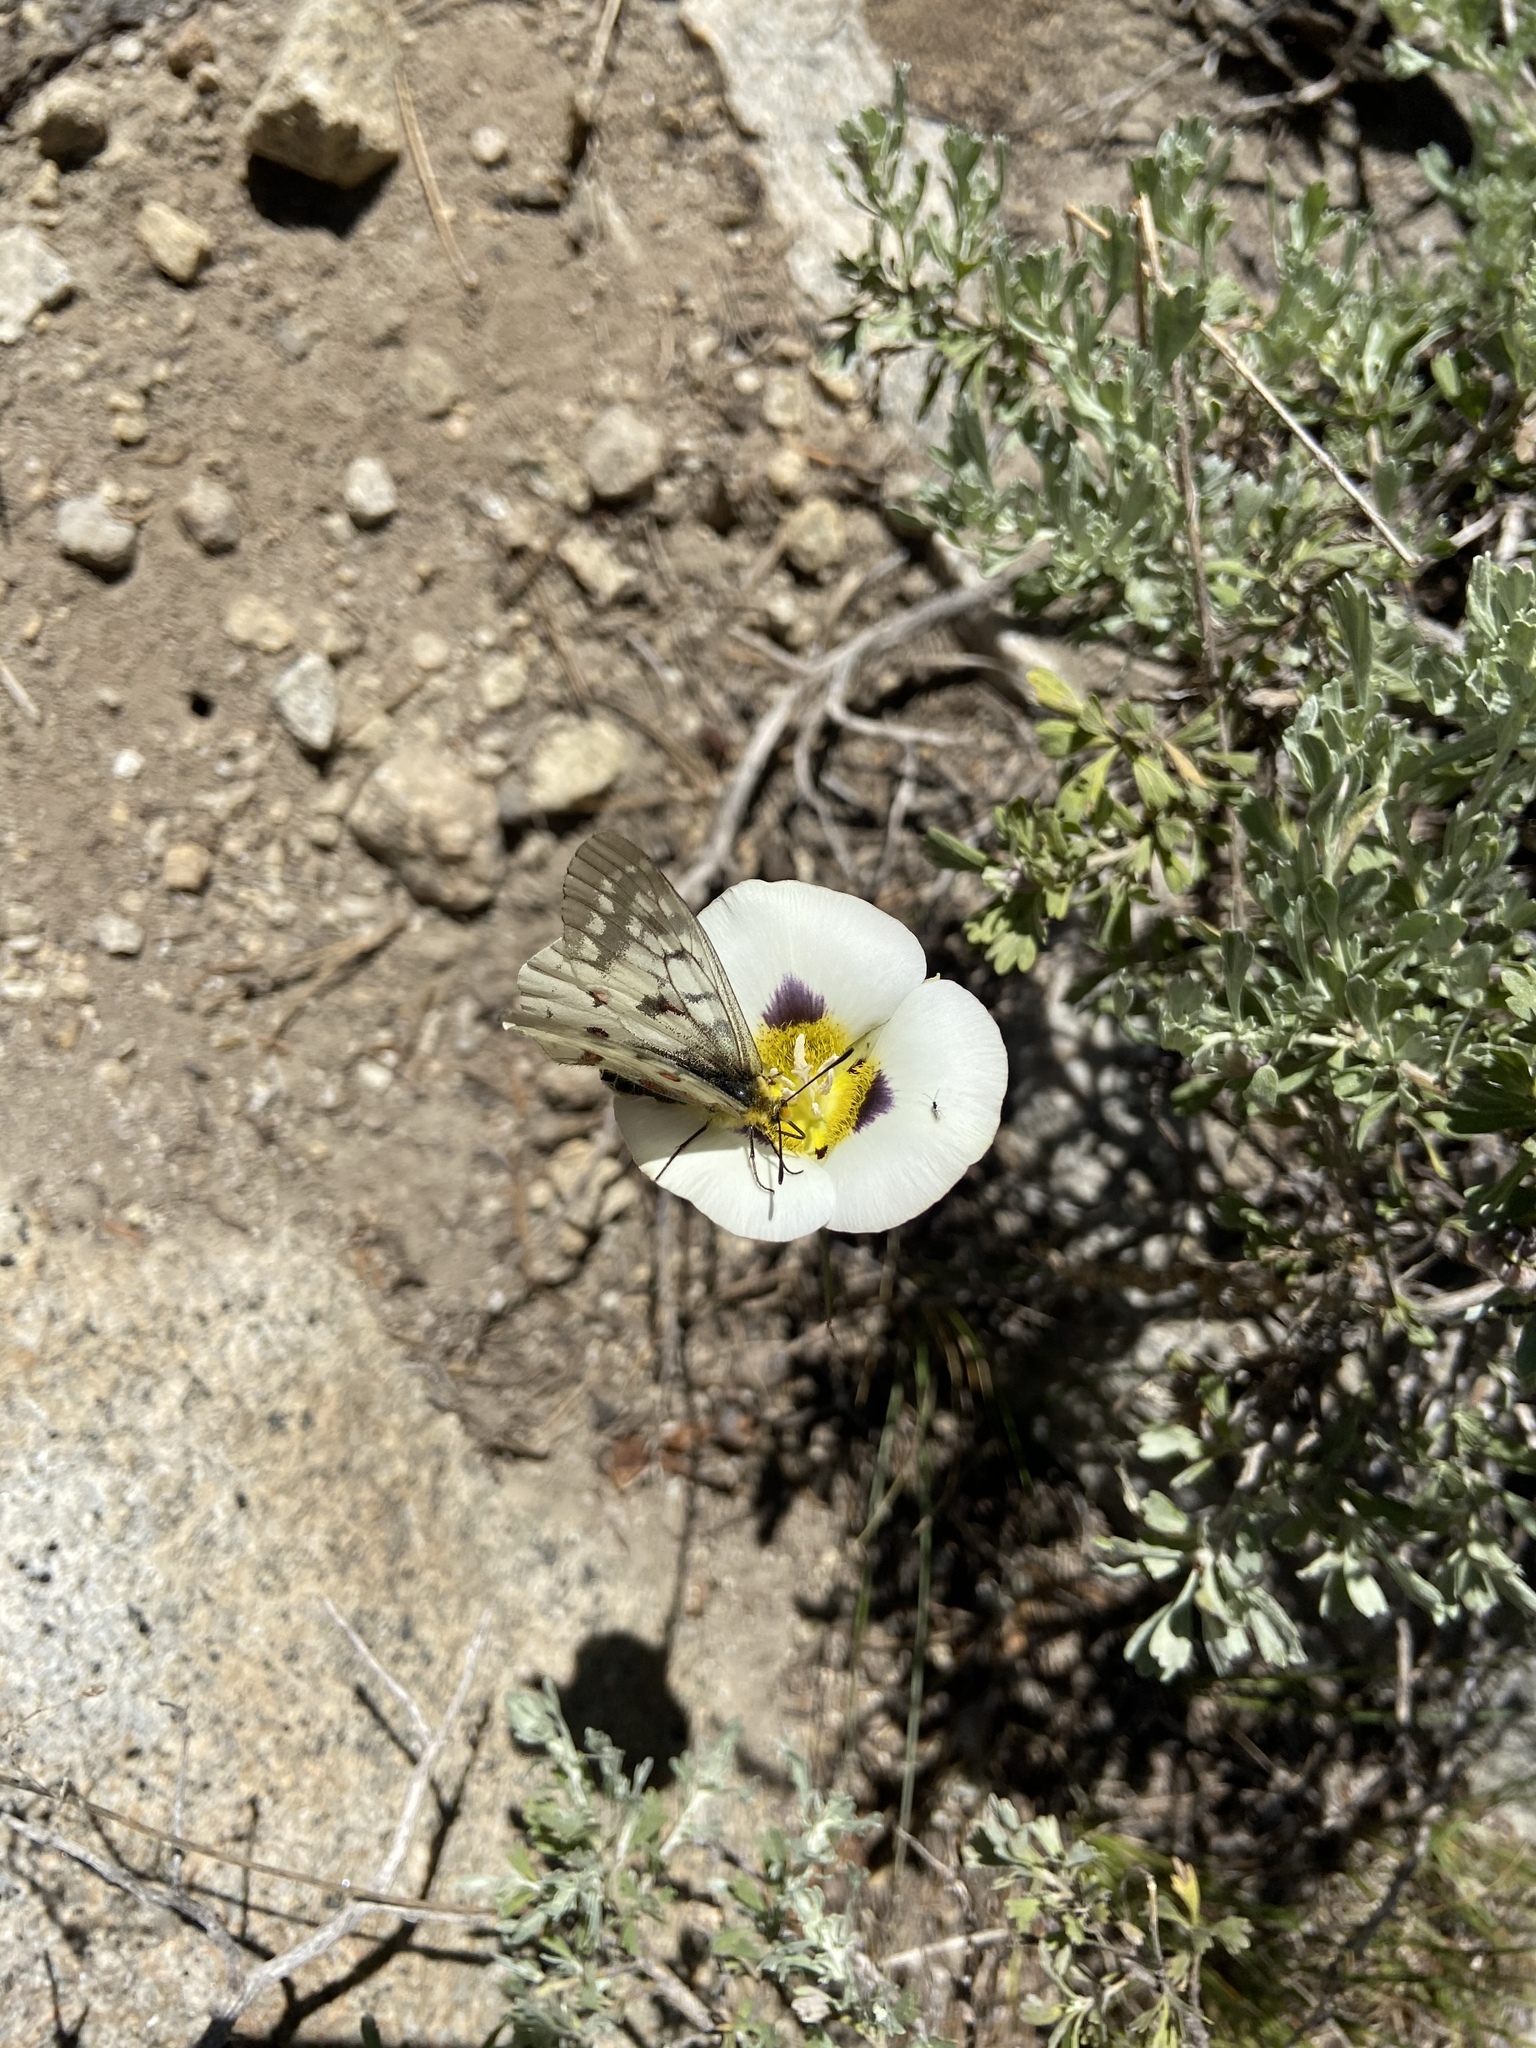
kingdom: Animalia
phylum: Arthropoda
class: Insecta
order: Lepidoptera
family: Papilionidae
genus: Parnassius
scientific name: Parnassius clodius
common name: American apollo
